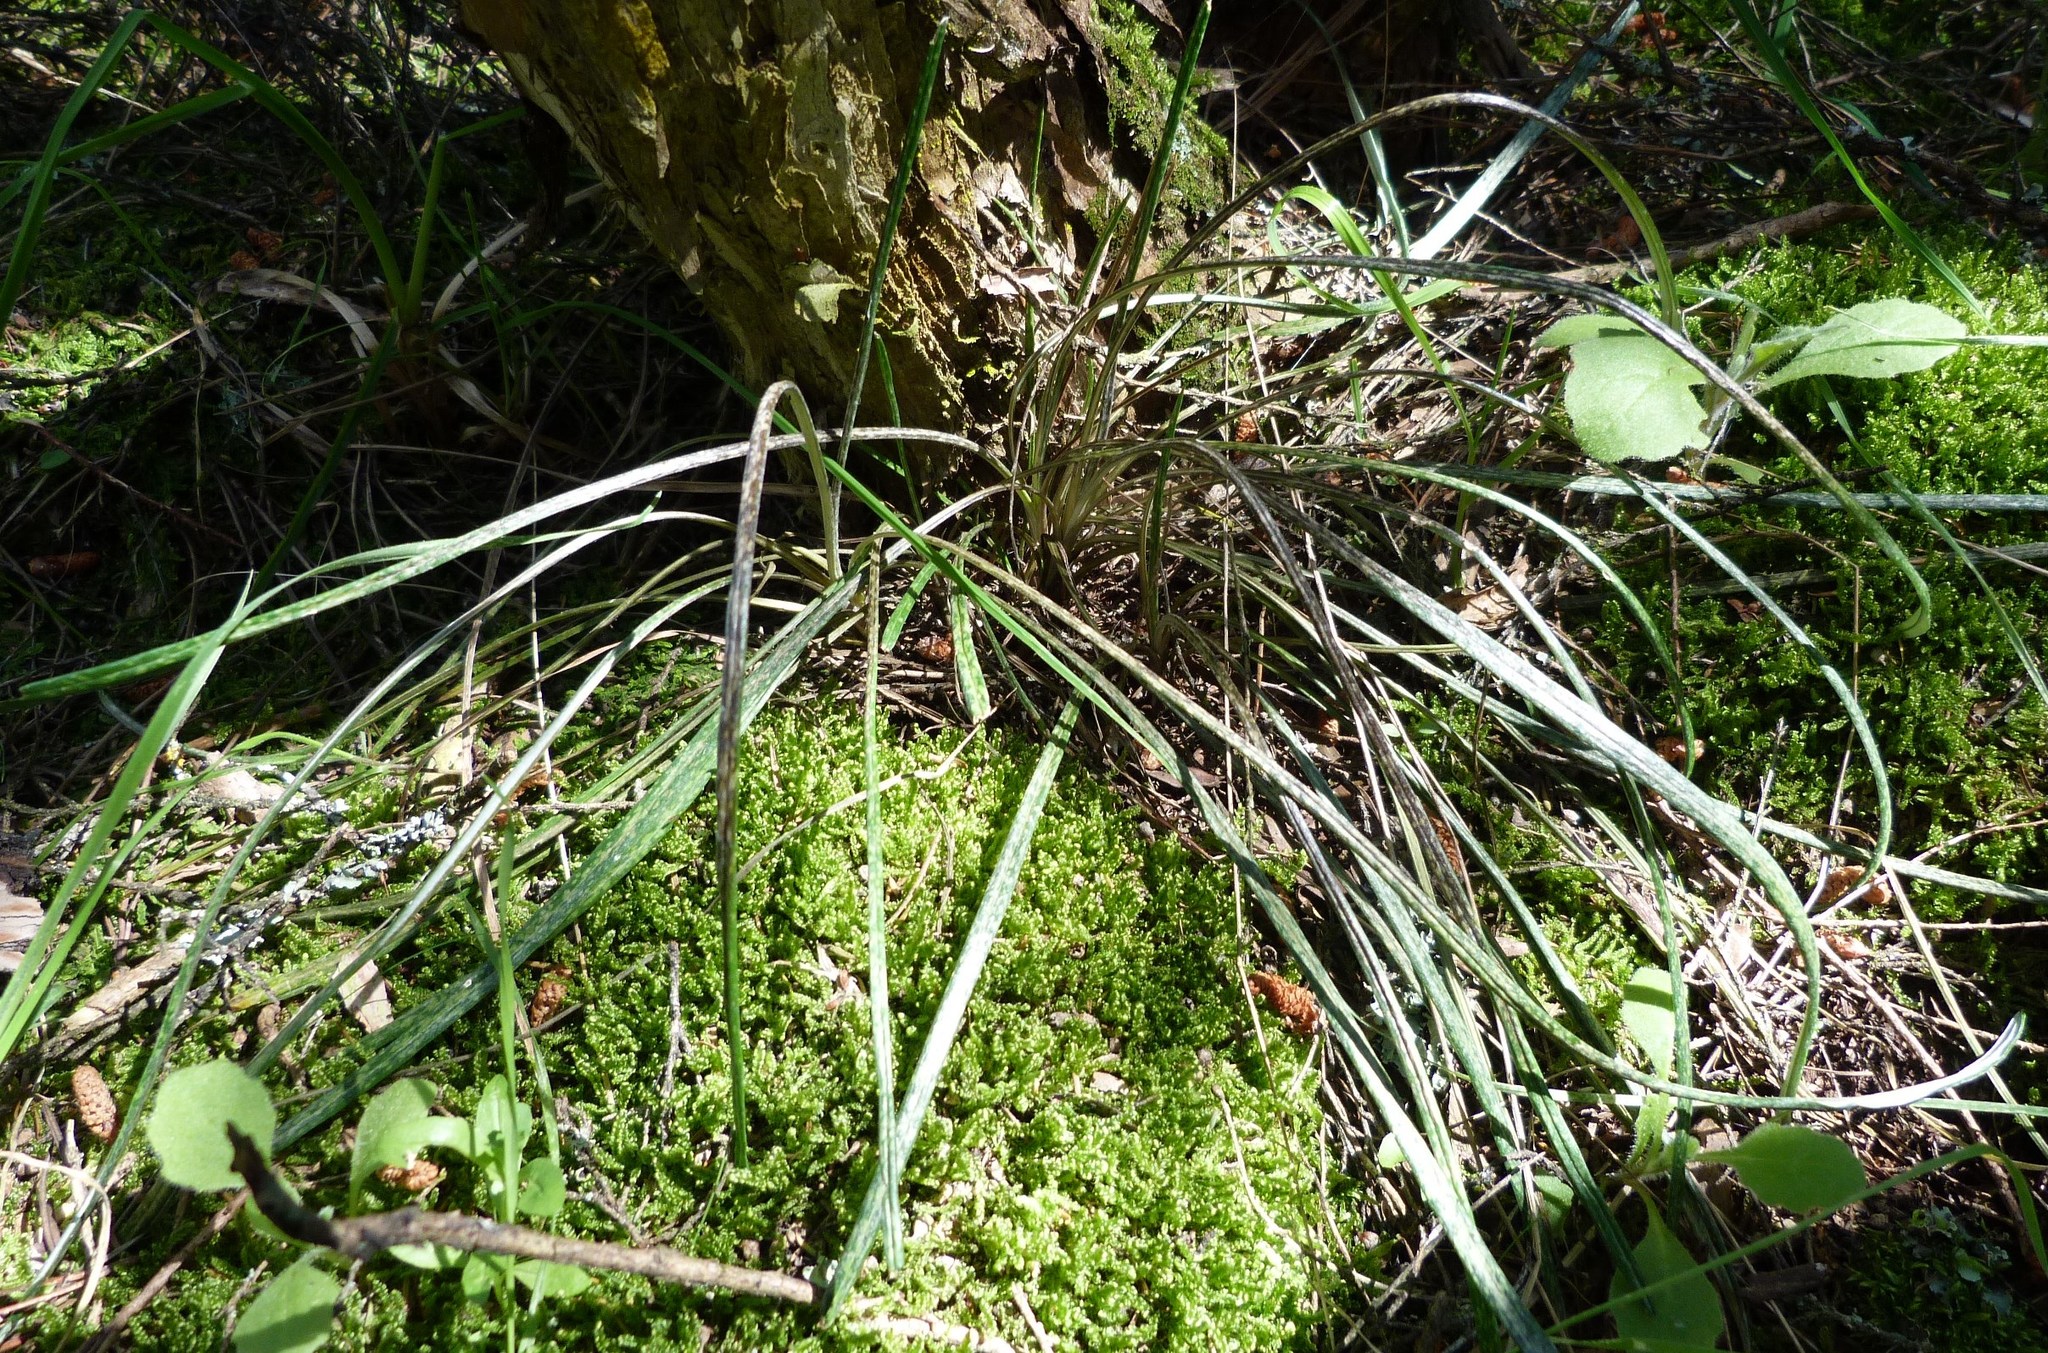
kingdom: Plantae
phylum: Tracheophyta
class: Magnoliopsida
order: Asterales
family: Asteraceae
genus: Celmisia
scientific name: Celmisia gracilenta
